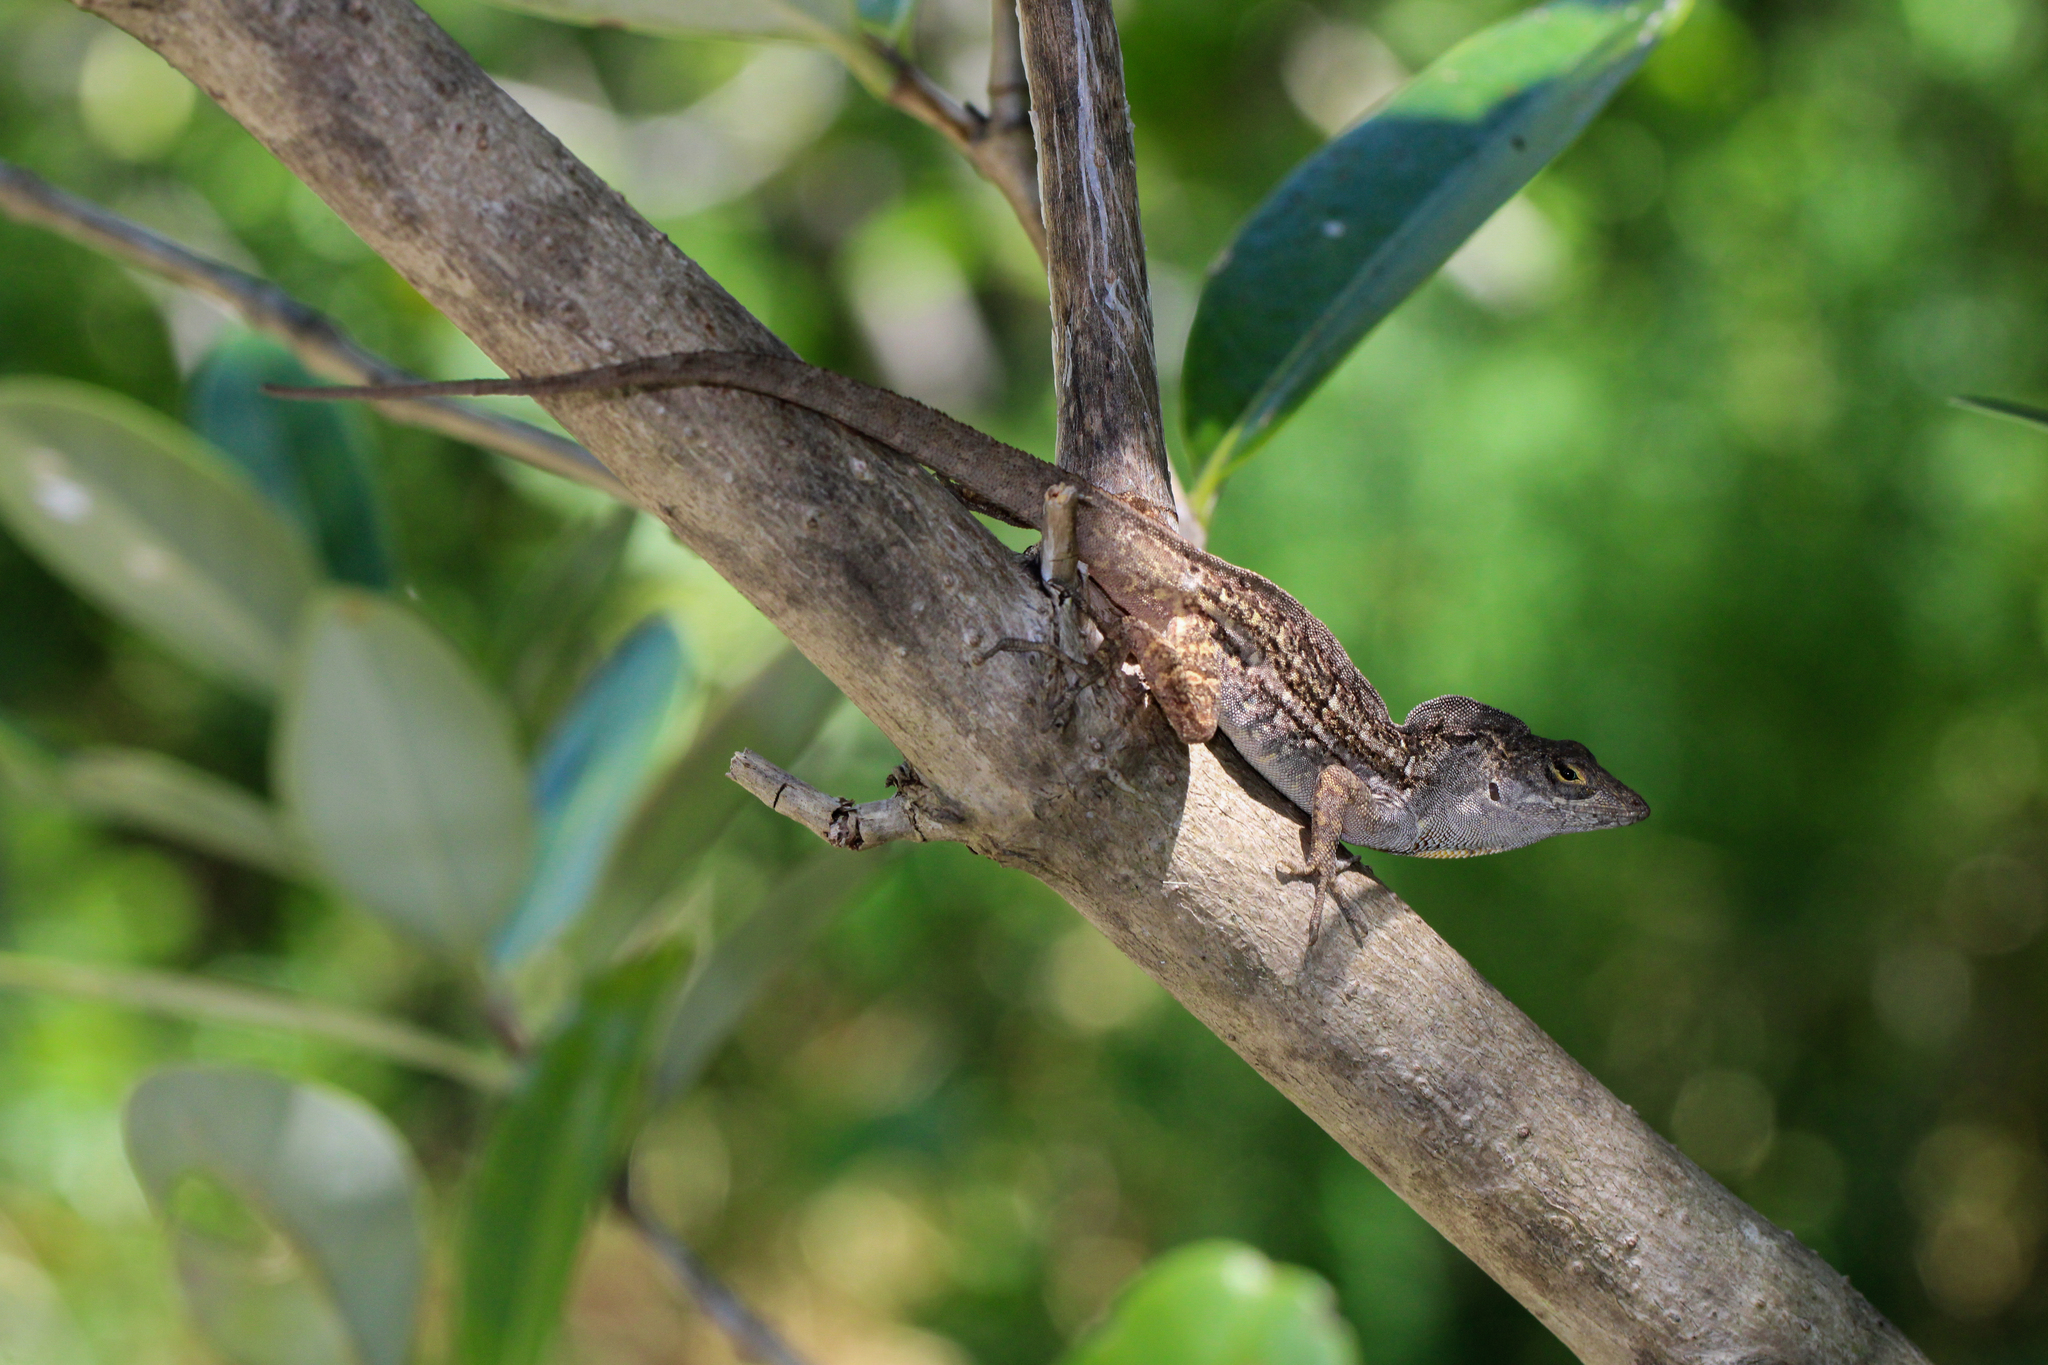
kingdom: Animalia
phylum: Chordata
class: Squamata
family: Dactyloidae
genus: Anolis
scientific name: Anolis sagrei
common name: Brown anole
